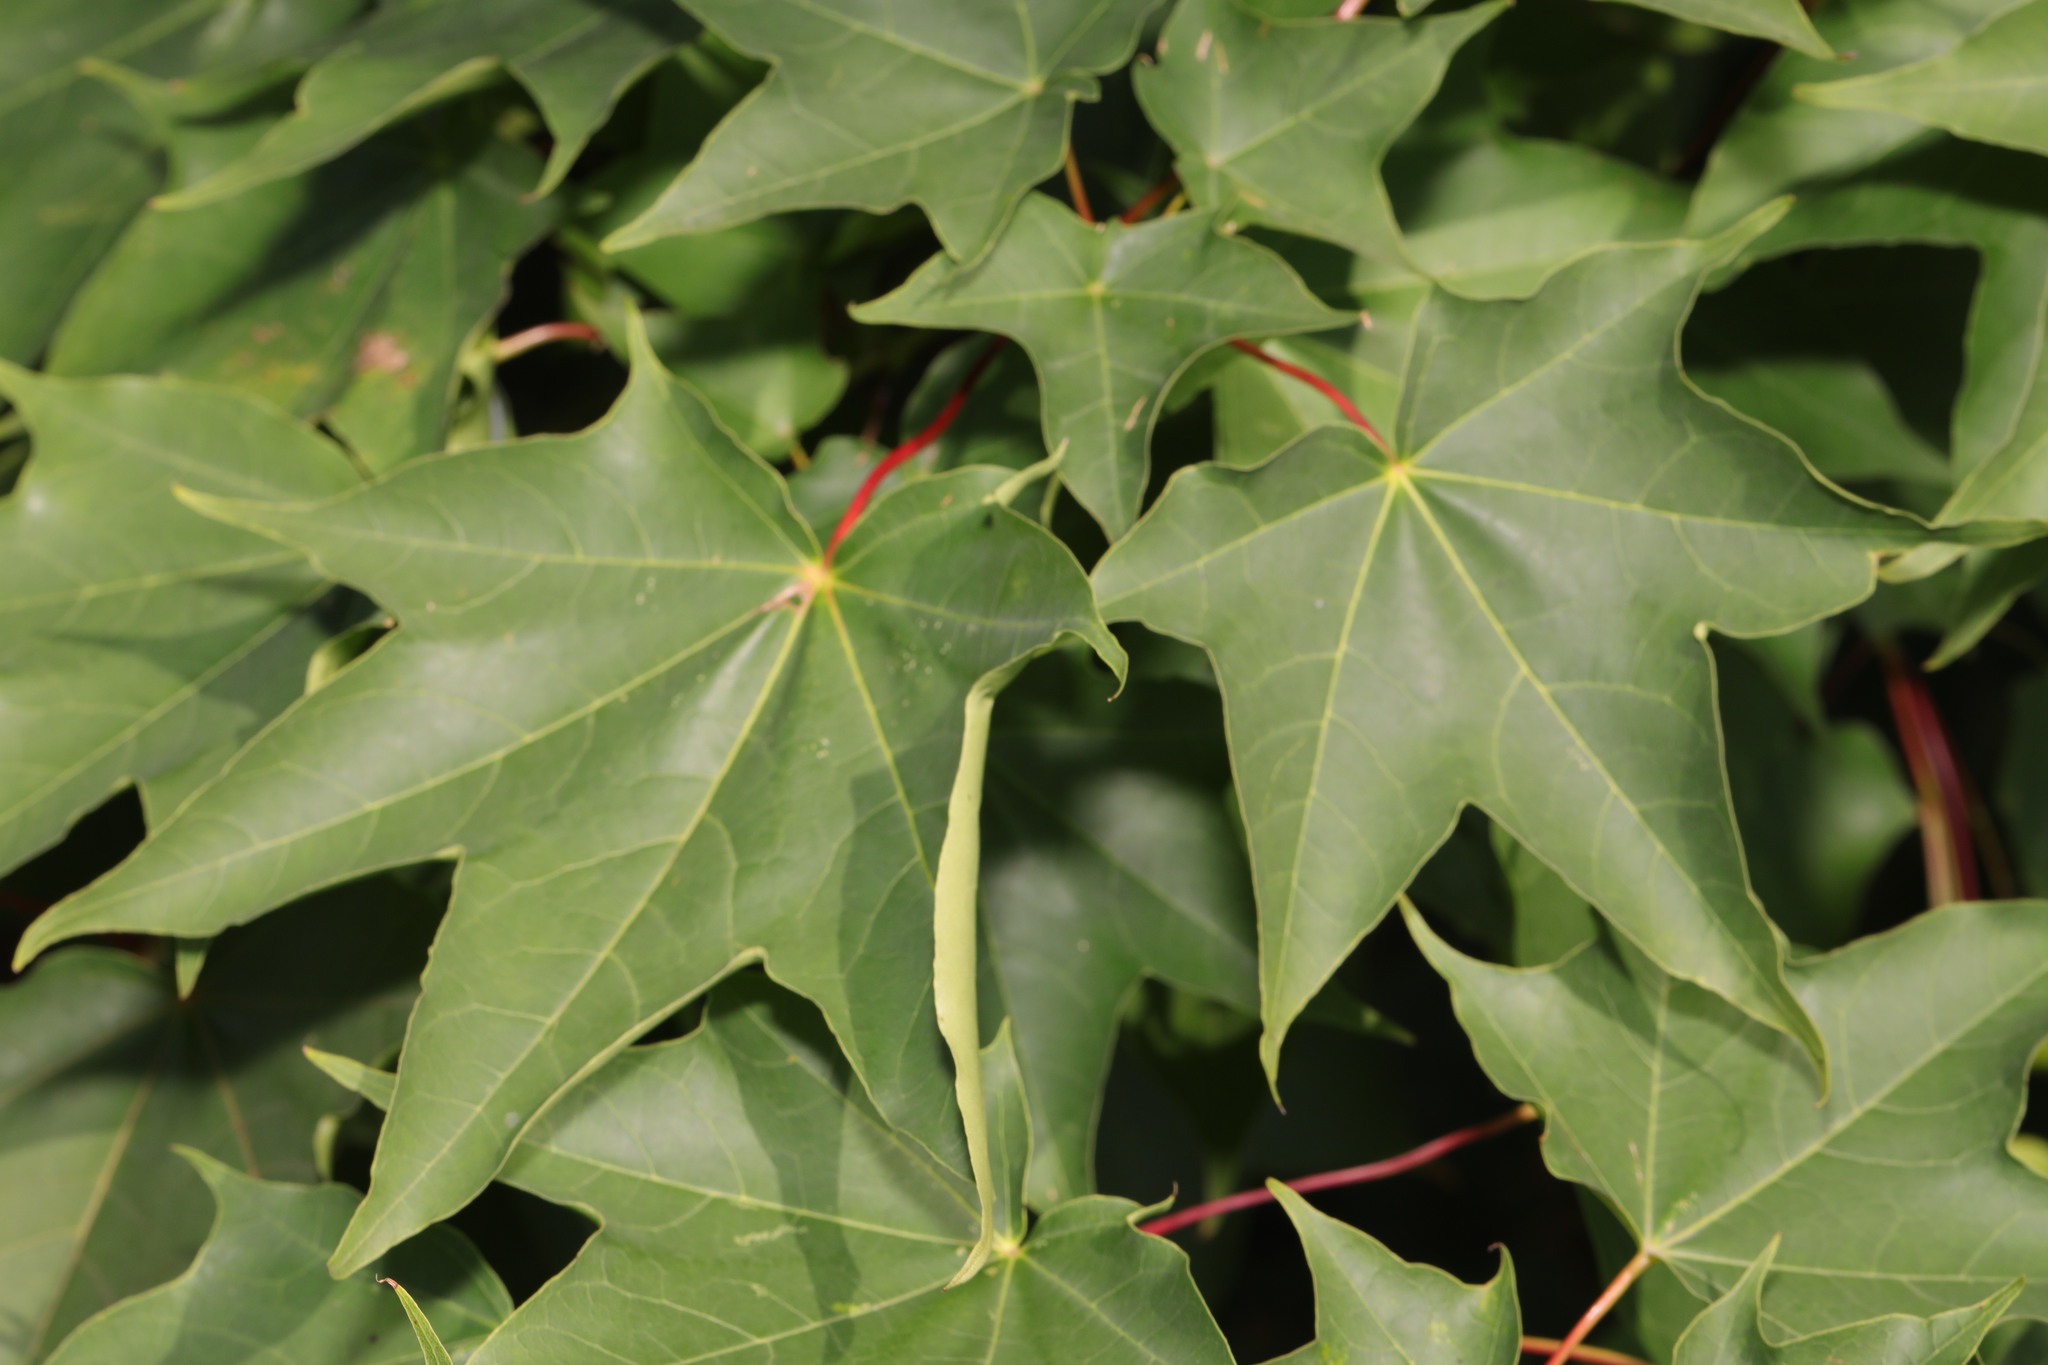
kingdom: Plantae
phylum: Tracheophyta
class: Magnoliopsida
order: Sapindales
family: Sapindaceae
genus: Acer
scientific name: Acer cappadocicum
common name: Cappadocian maple
